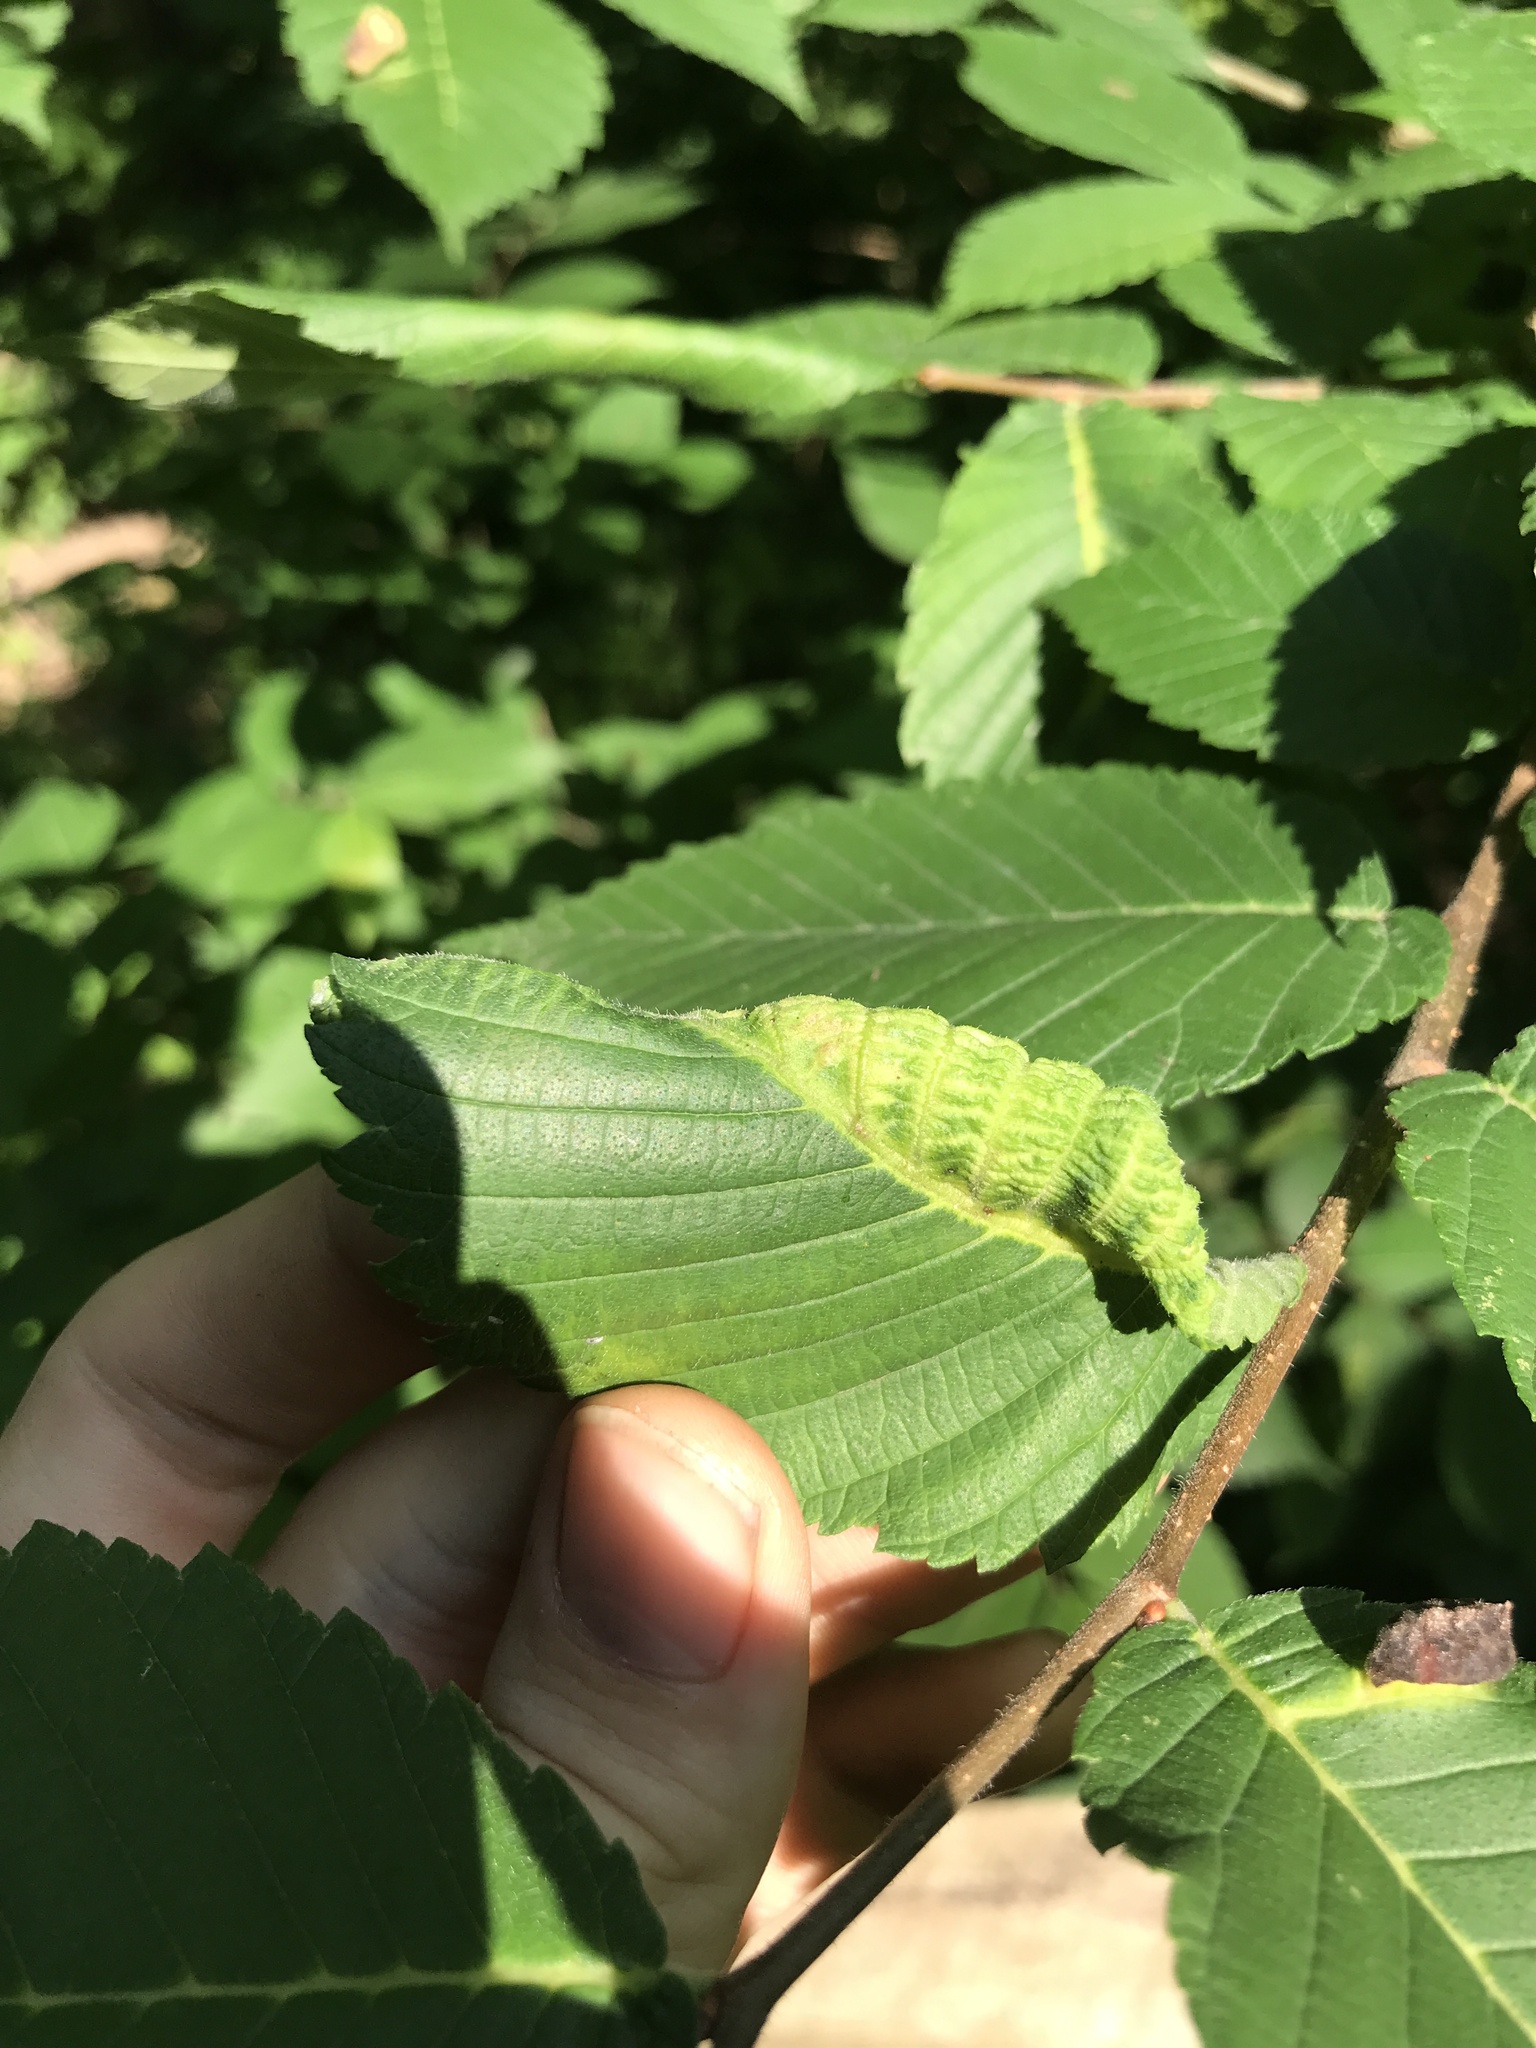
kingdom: Animalia
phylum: Arthropoda
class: Insecta
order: Hemiptera
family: Aphididae
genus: Eriosoma
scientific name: Eriosoma americanum
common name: Woolly elm aphid
